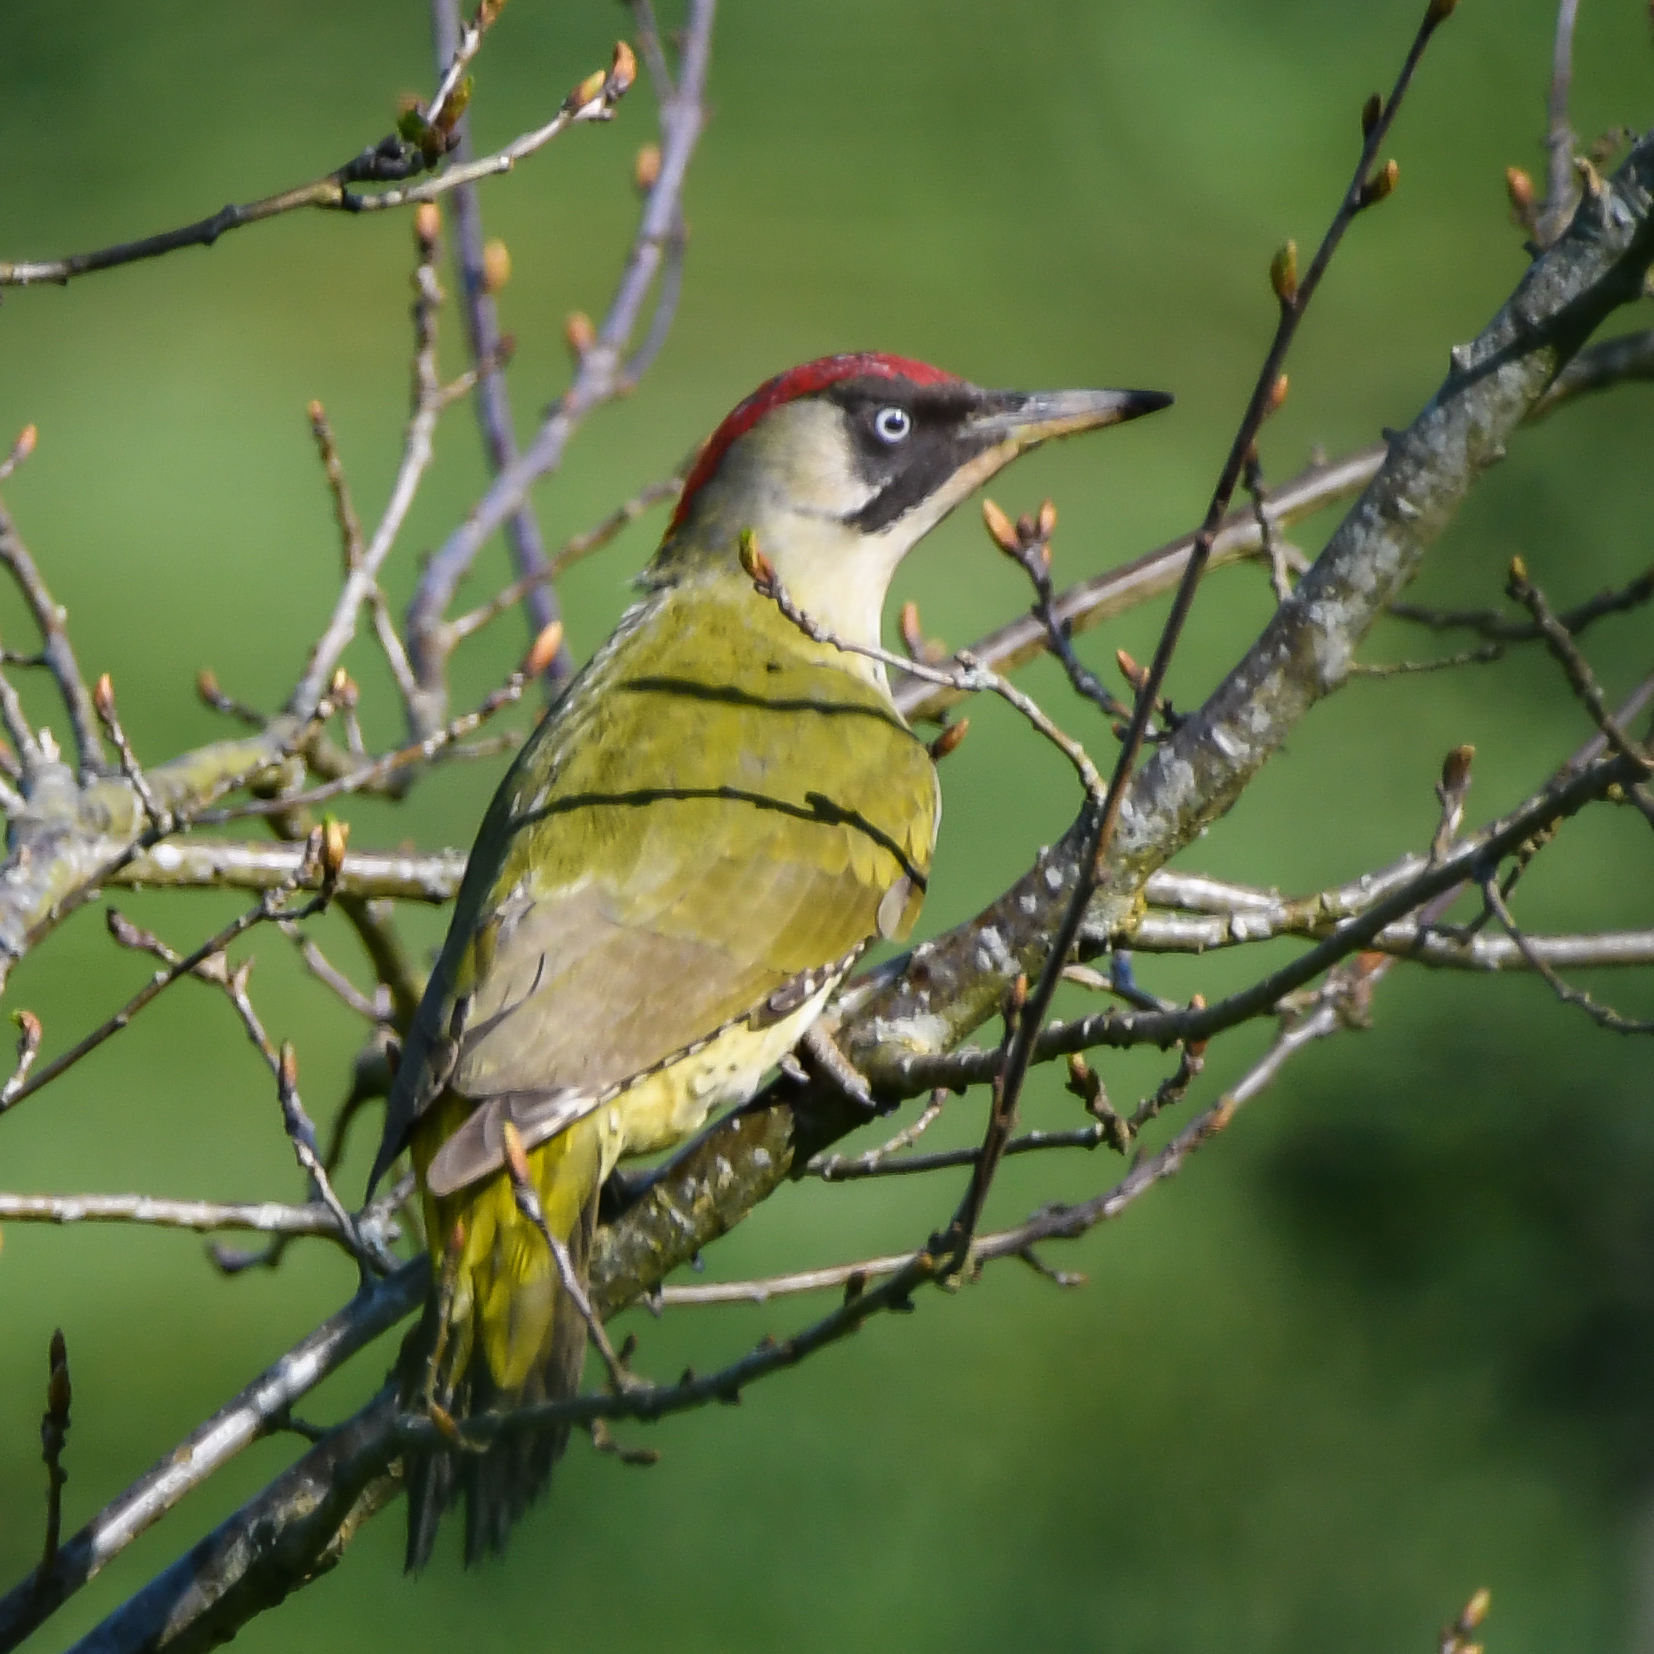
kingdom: Animalia
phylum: Chordata
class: Aves
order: Piciformes
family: Picidae
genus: Picus
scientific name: Picus viridis
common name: European green woodpecker
